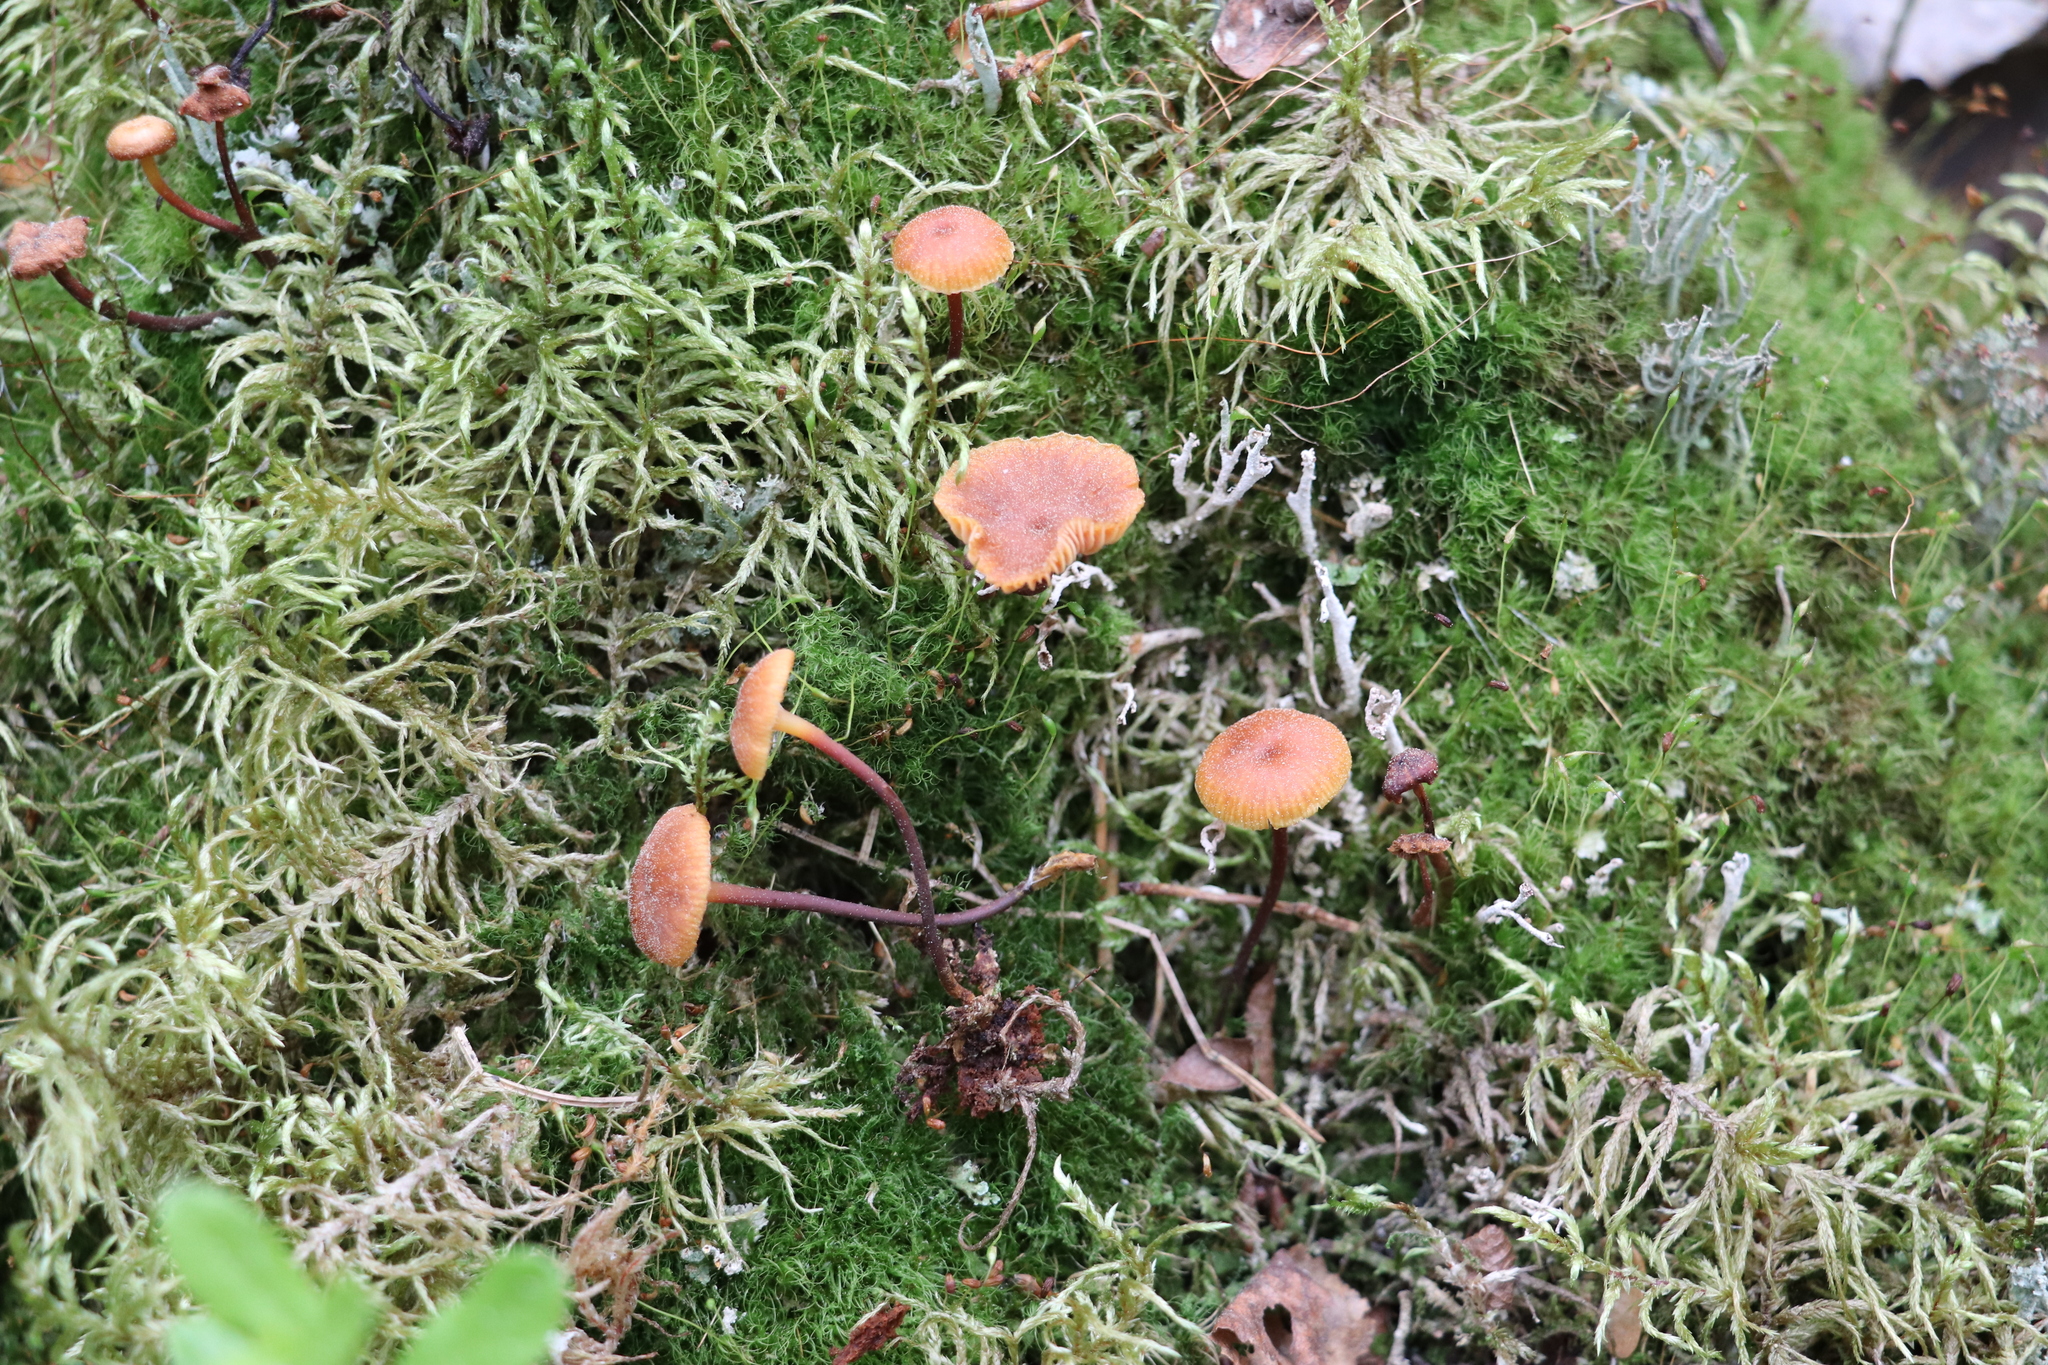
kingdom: Fungi
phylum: Basidiomycota
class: Agaricomycetes
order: Agaricales
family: Mycenaceae
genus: Xeromphalina
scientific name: Xeromphalina campanella
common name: Pinewood gingertail
